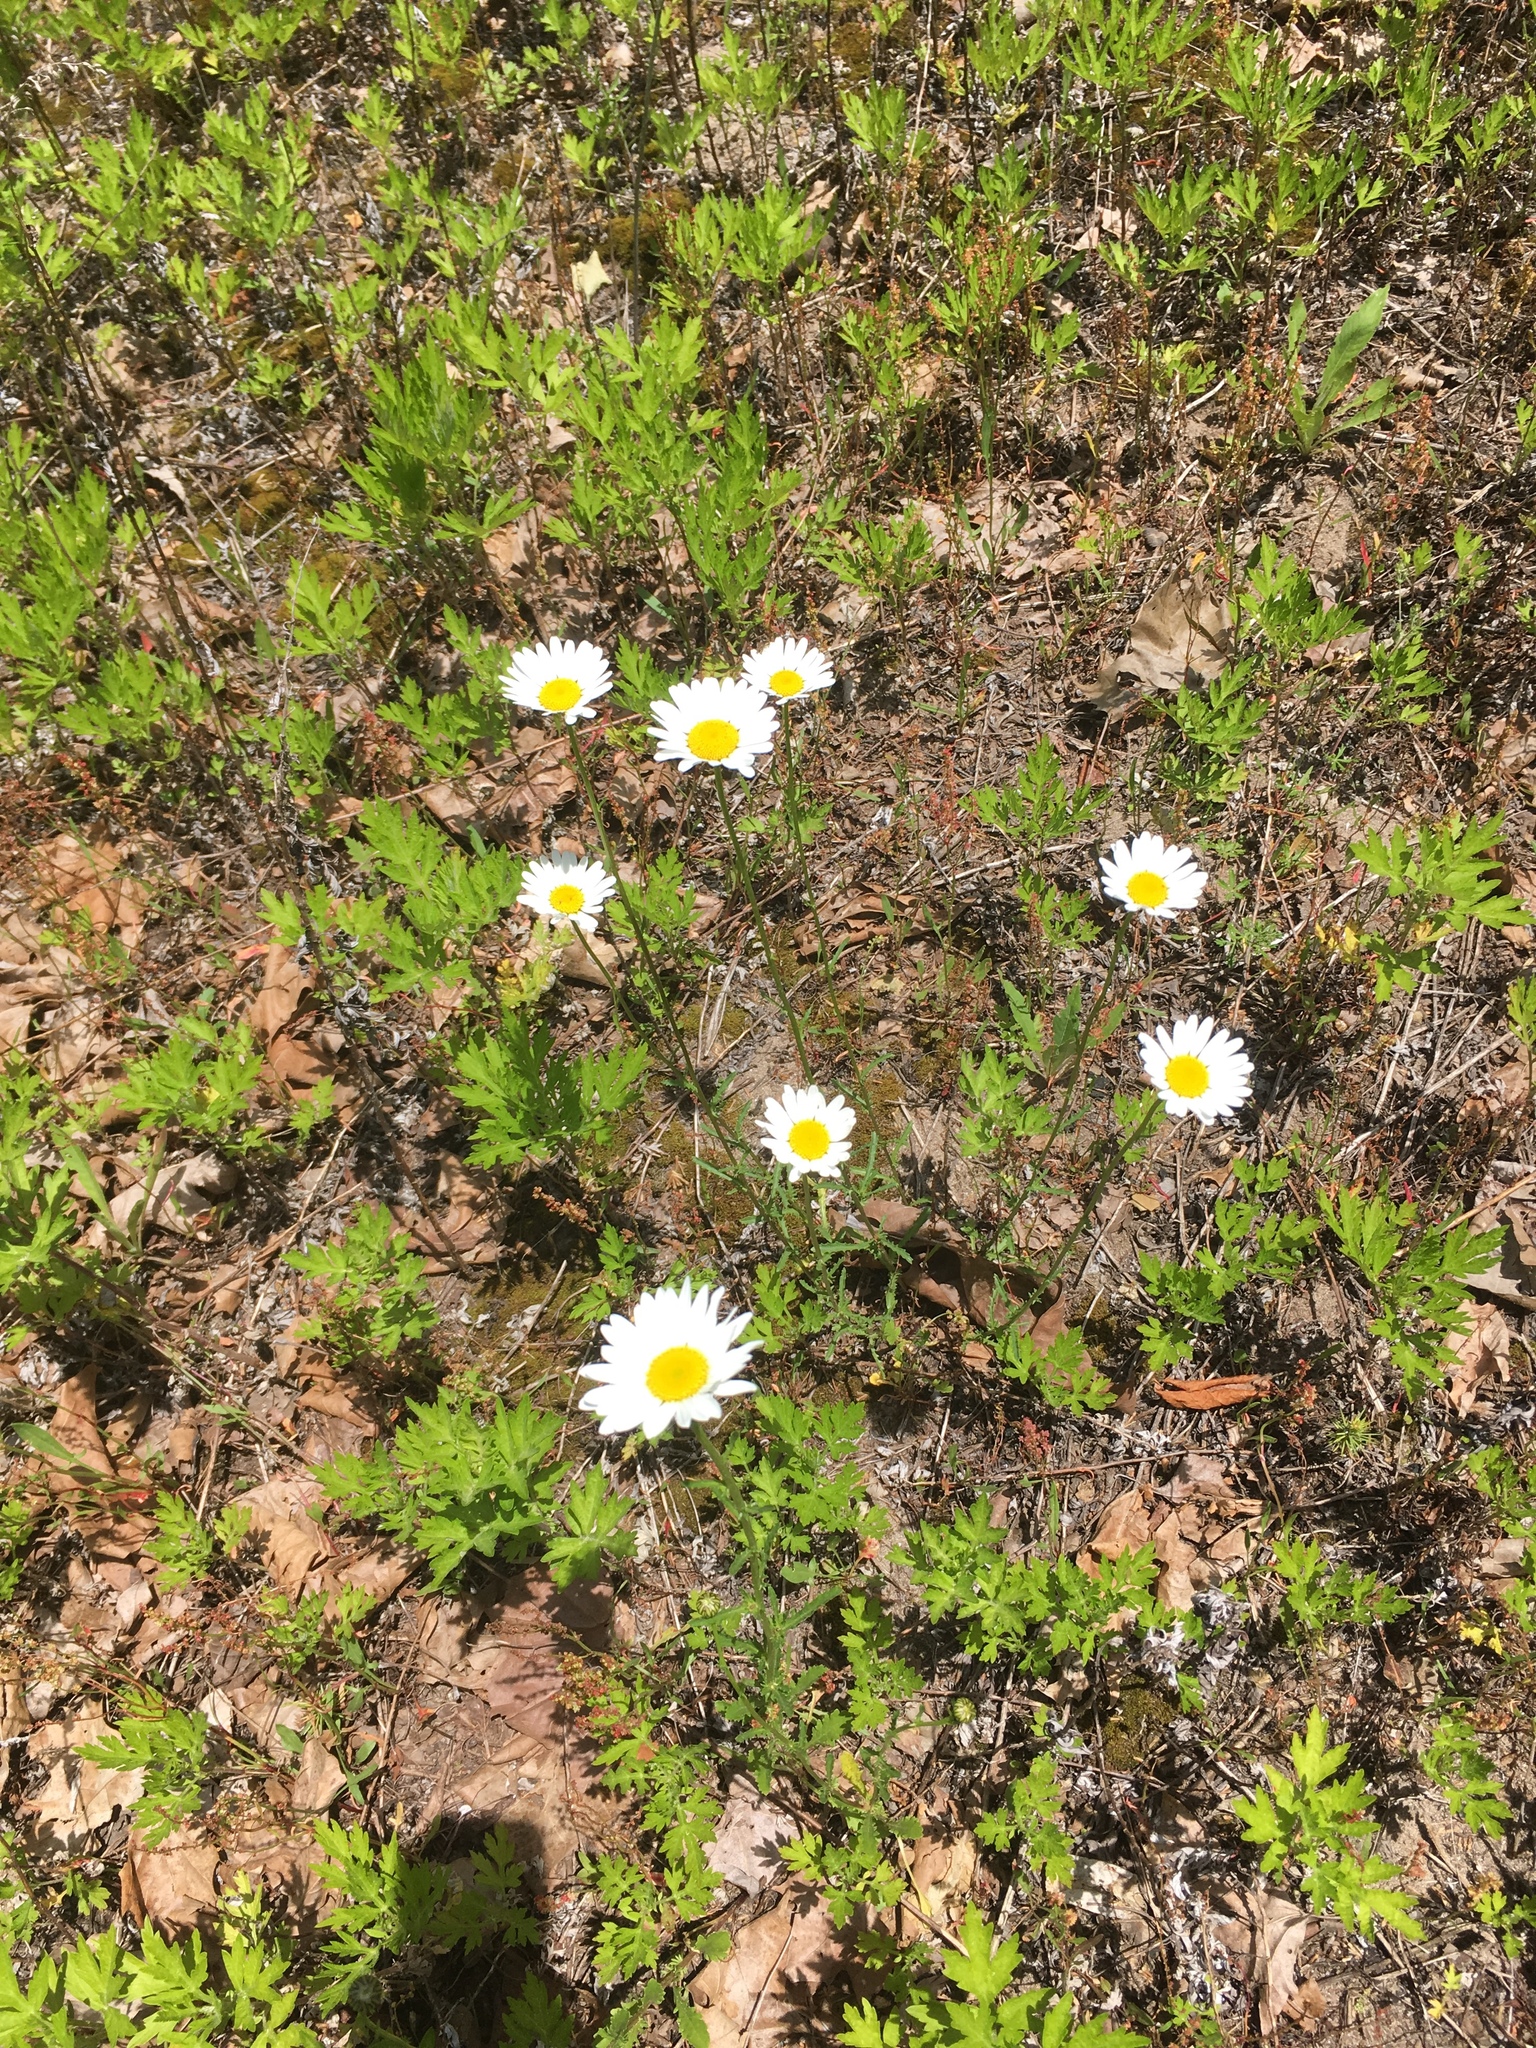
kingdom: Plantae
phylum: Tracheophyta
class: Magnoliopsida
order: Asterales
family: Asteraceae
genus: Leucanthemum
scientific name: Leucanthemum vulgare
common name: Oxeye daisy
